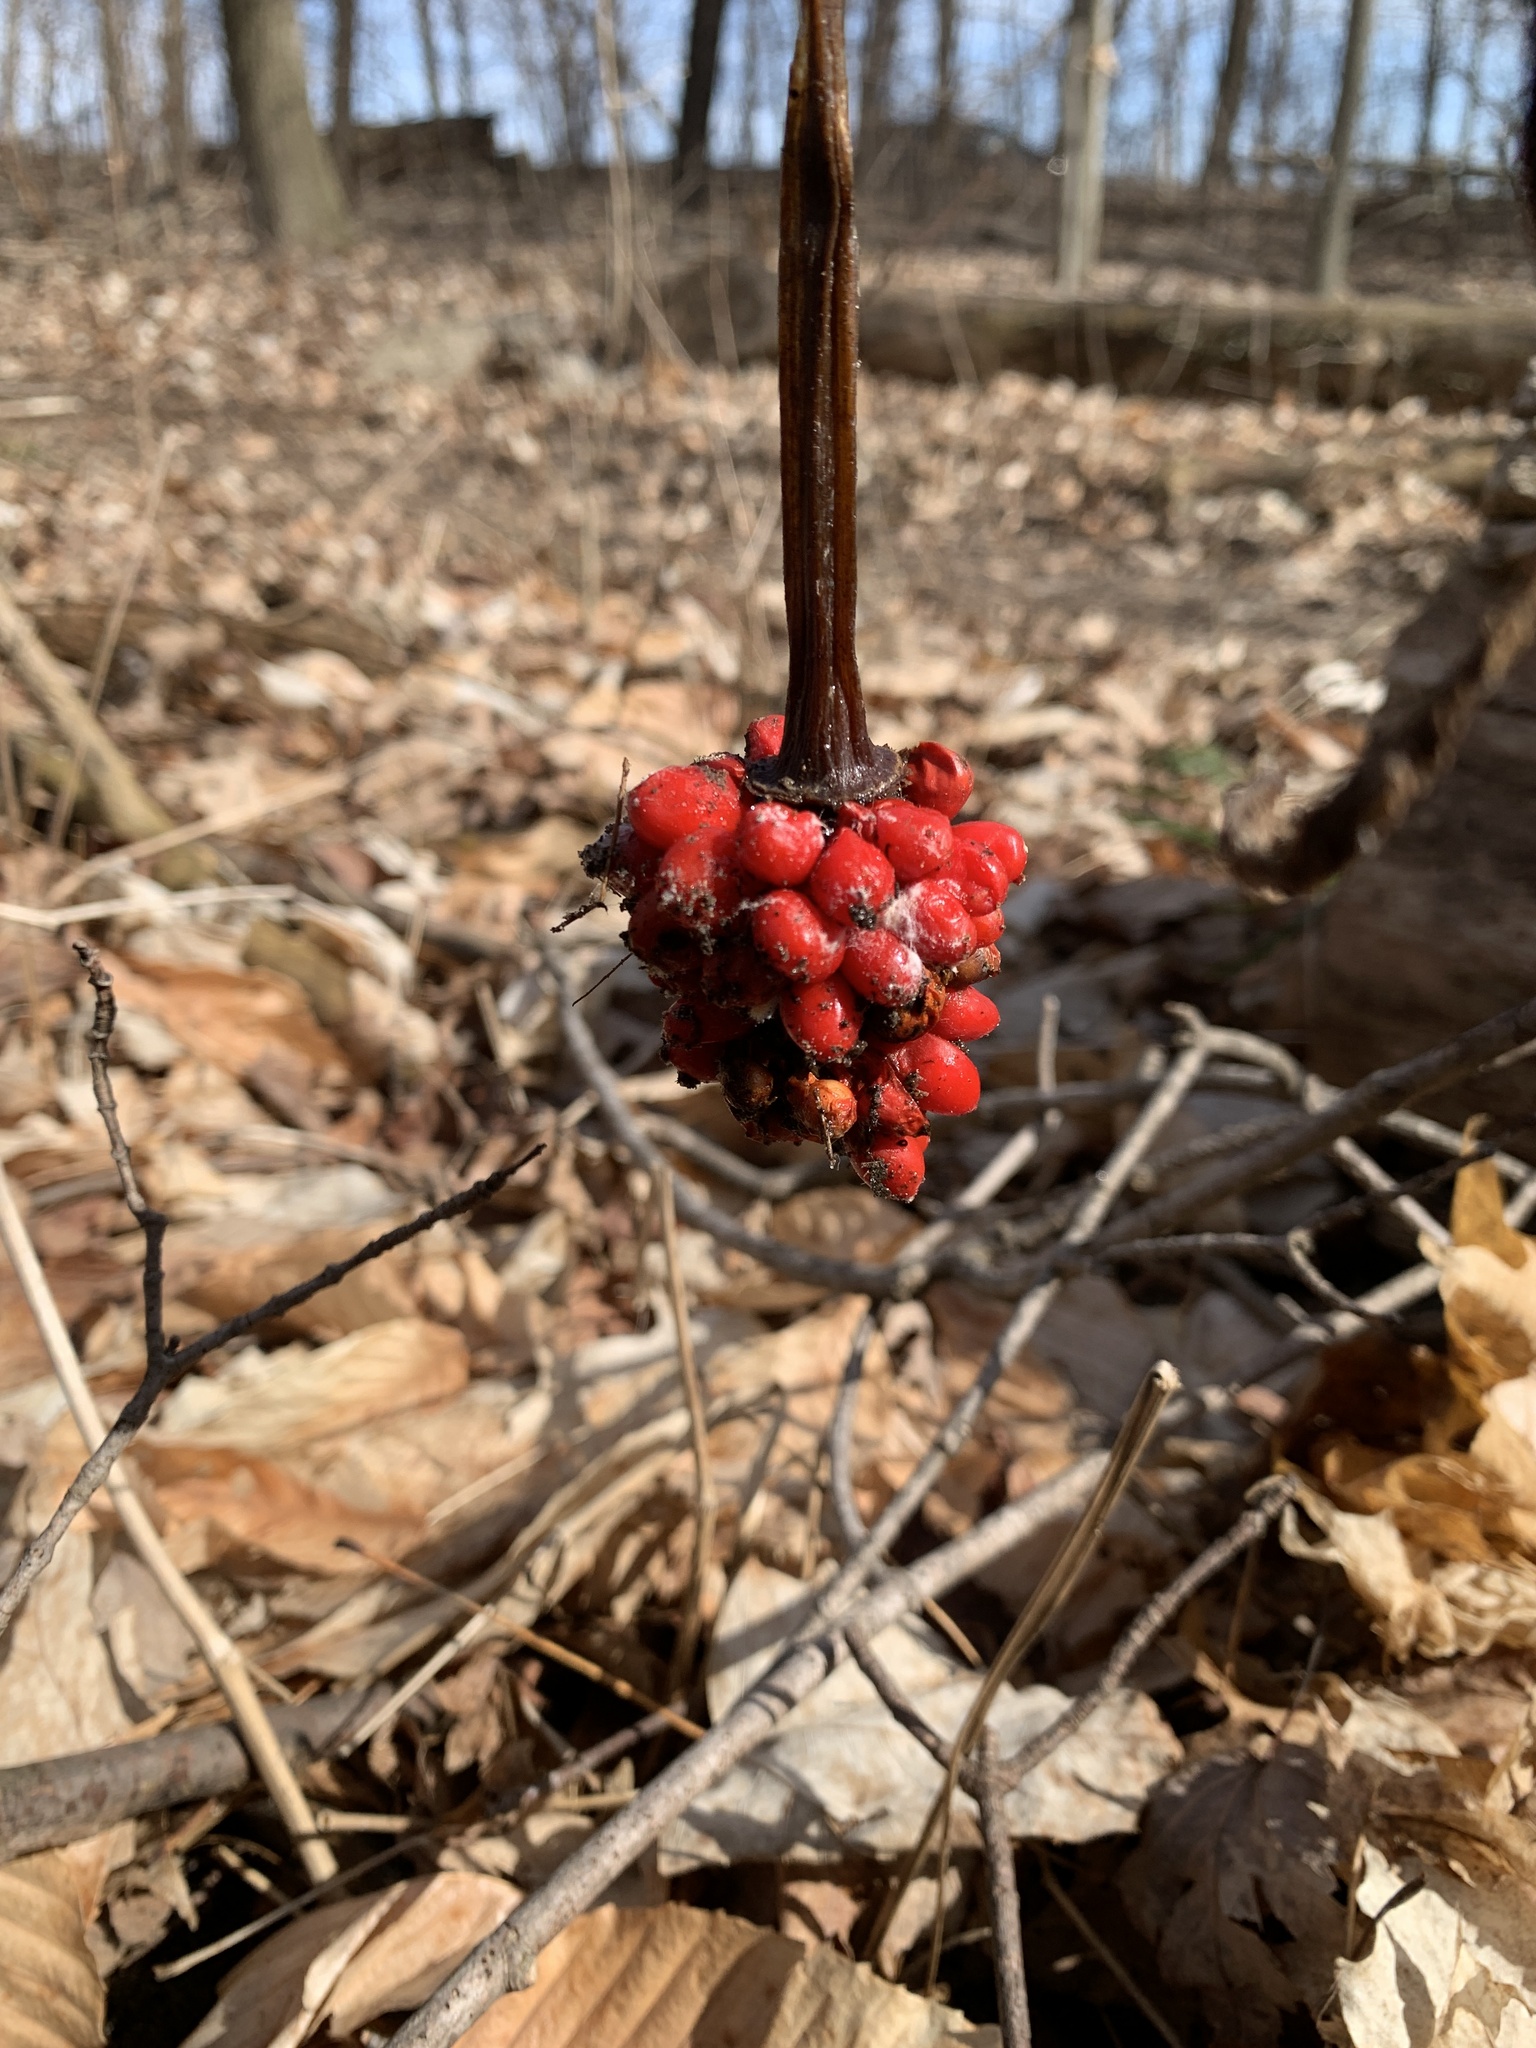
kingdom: Plantae
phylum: Tracheophyta
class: Liliopsida
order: Alismatales
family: Araceae
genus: Arisaema
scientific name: Arisaema triphyllum
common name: Jack-in-the-pulpit
